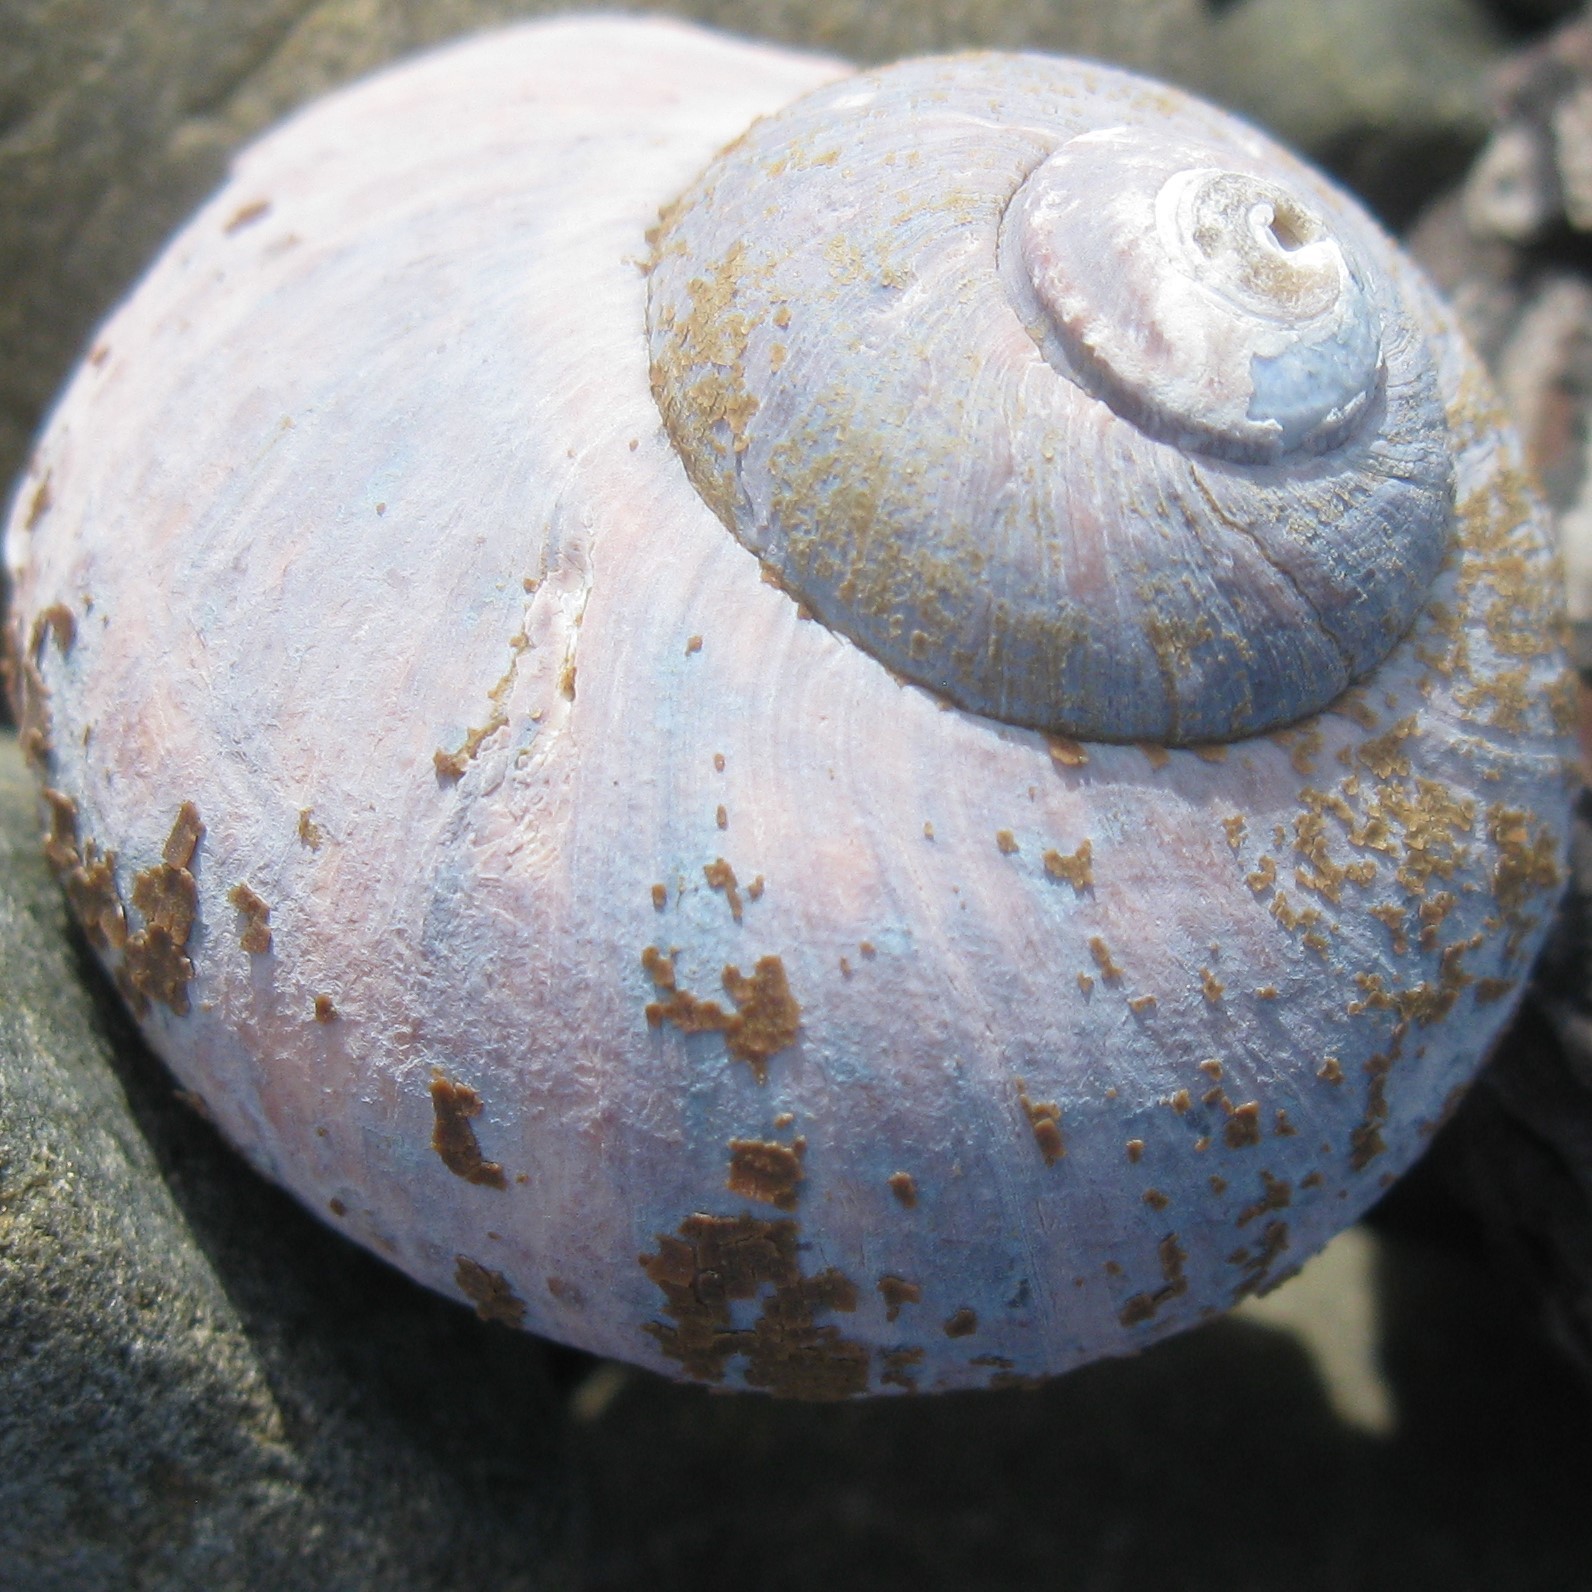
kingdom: Animalia
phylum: Mollusca
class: Gastropoda
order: Trochida
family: Turbinidae
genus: Lunella
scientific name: Lunella smaragda
